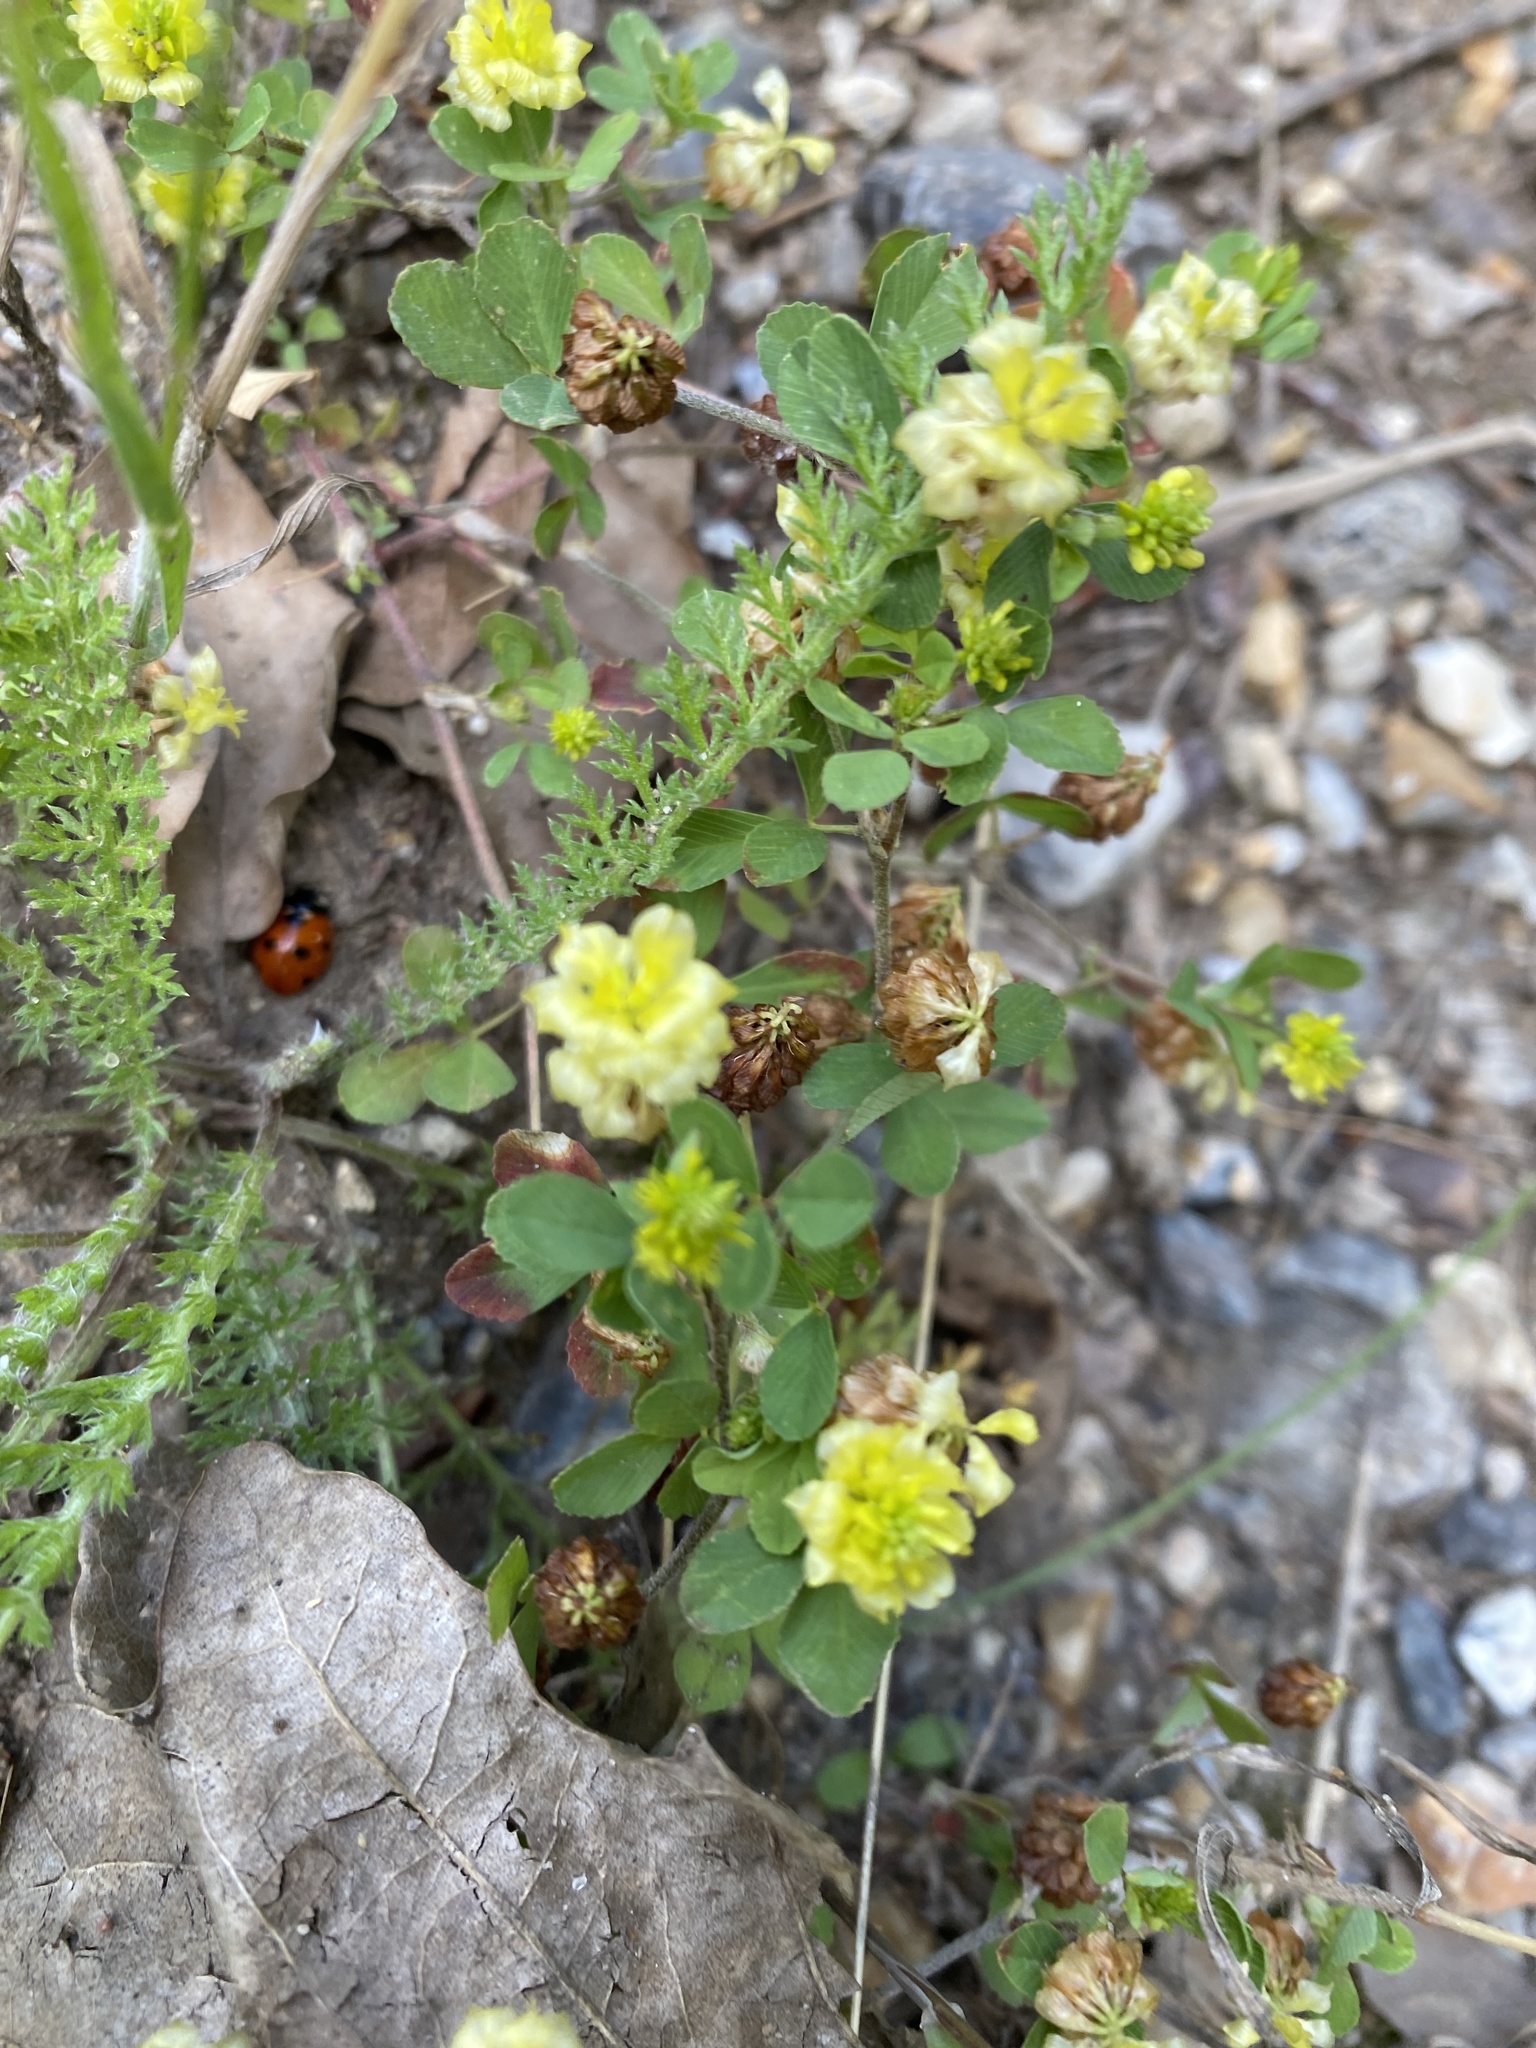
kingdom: Plantae
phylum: Tracheophyta
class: Magnoliopsida
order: Fabales
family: Fabaceae
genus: Trifolium
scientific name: Trifolium campestre
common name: Field clover
